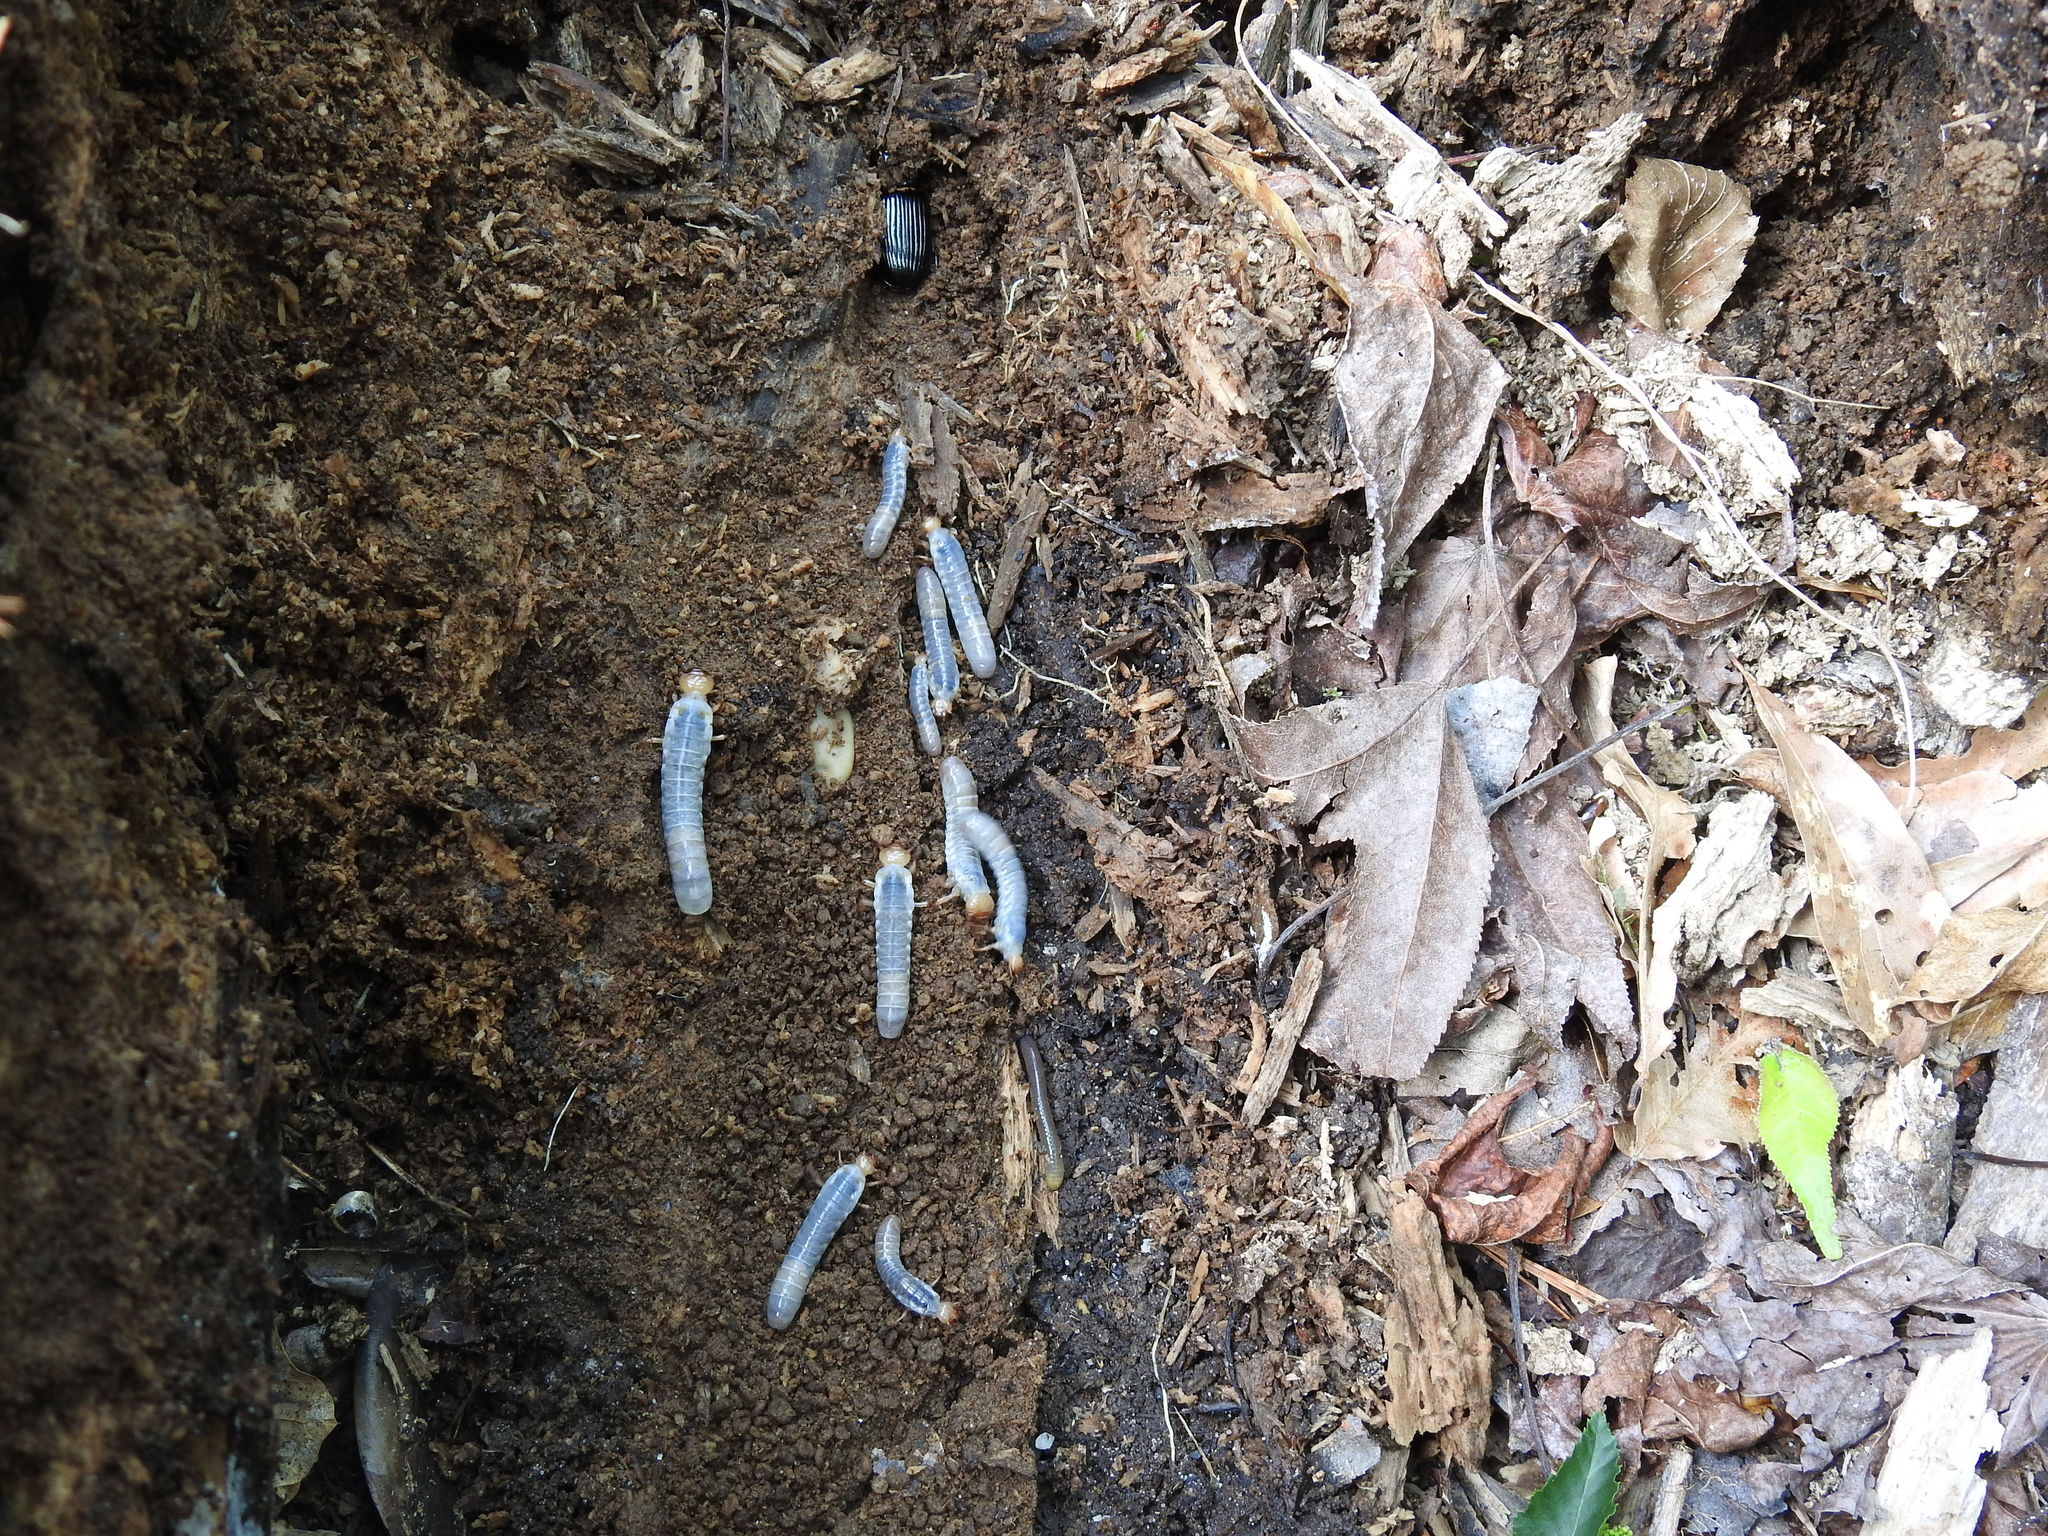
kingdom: Animalia
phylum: Arthropoda
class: Insecta
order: Coleoptera
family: Passalidae
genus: Odontotaenius
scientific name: Odontotaenius disjunctus
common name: Patent leather beetle
